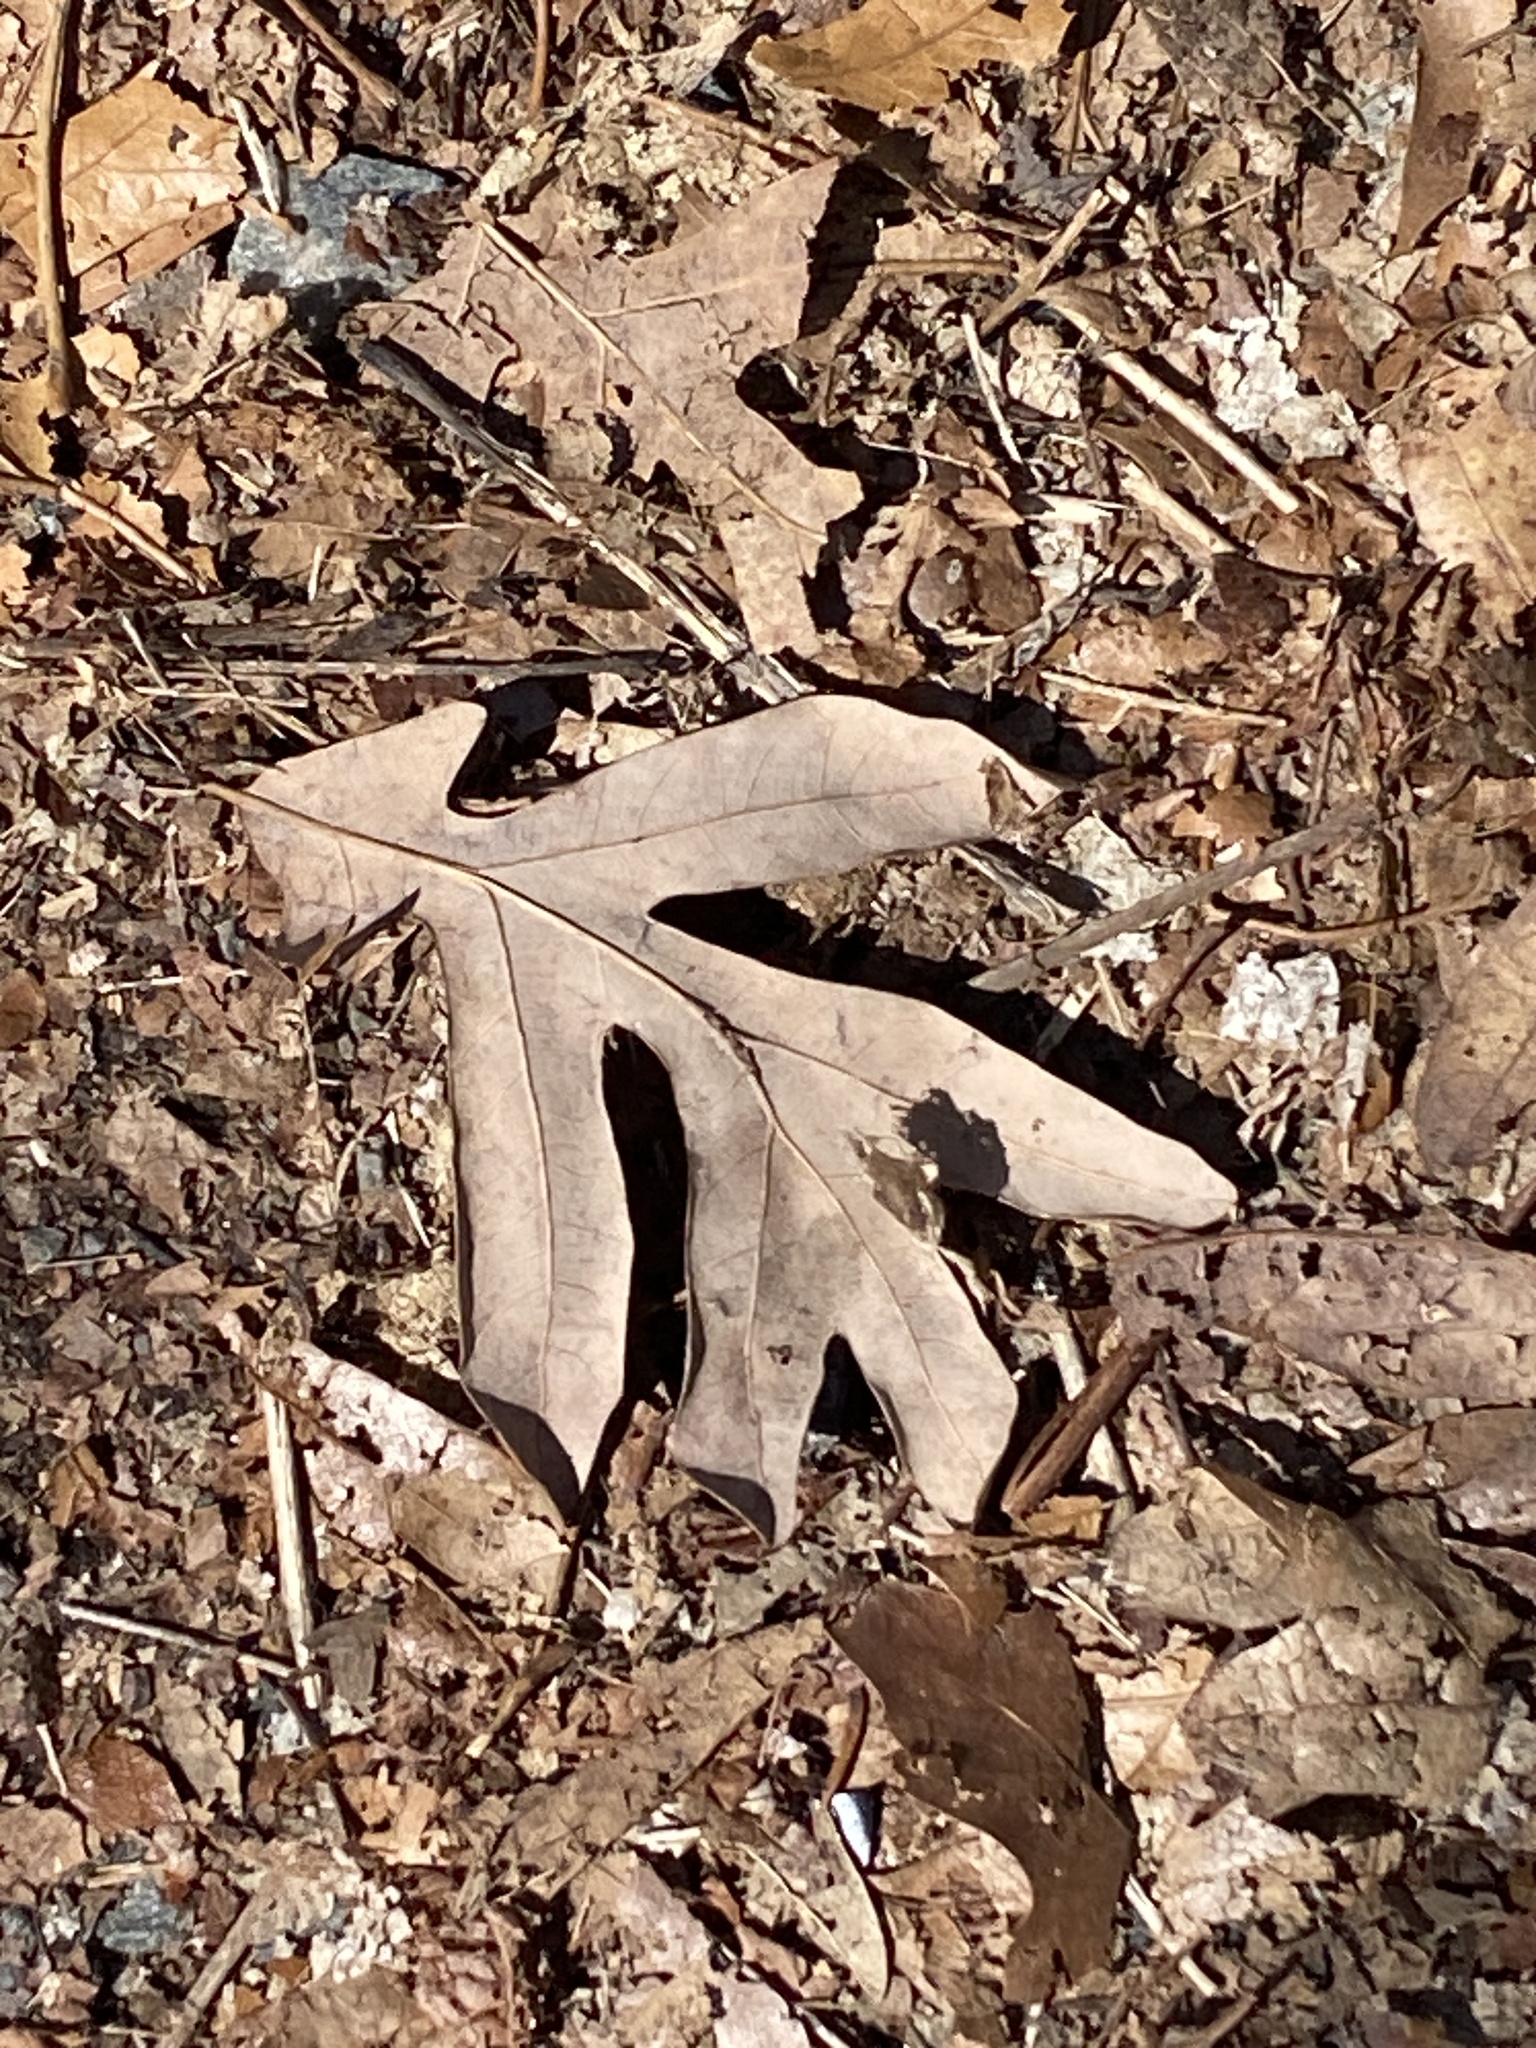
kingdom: Plantae
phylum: Tracheophyta
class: Magnoliopsida
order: Fagales
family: Fagaceae
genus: Quercus
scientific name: Quercus alba
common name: White oak
